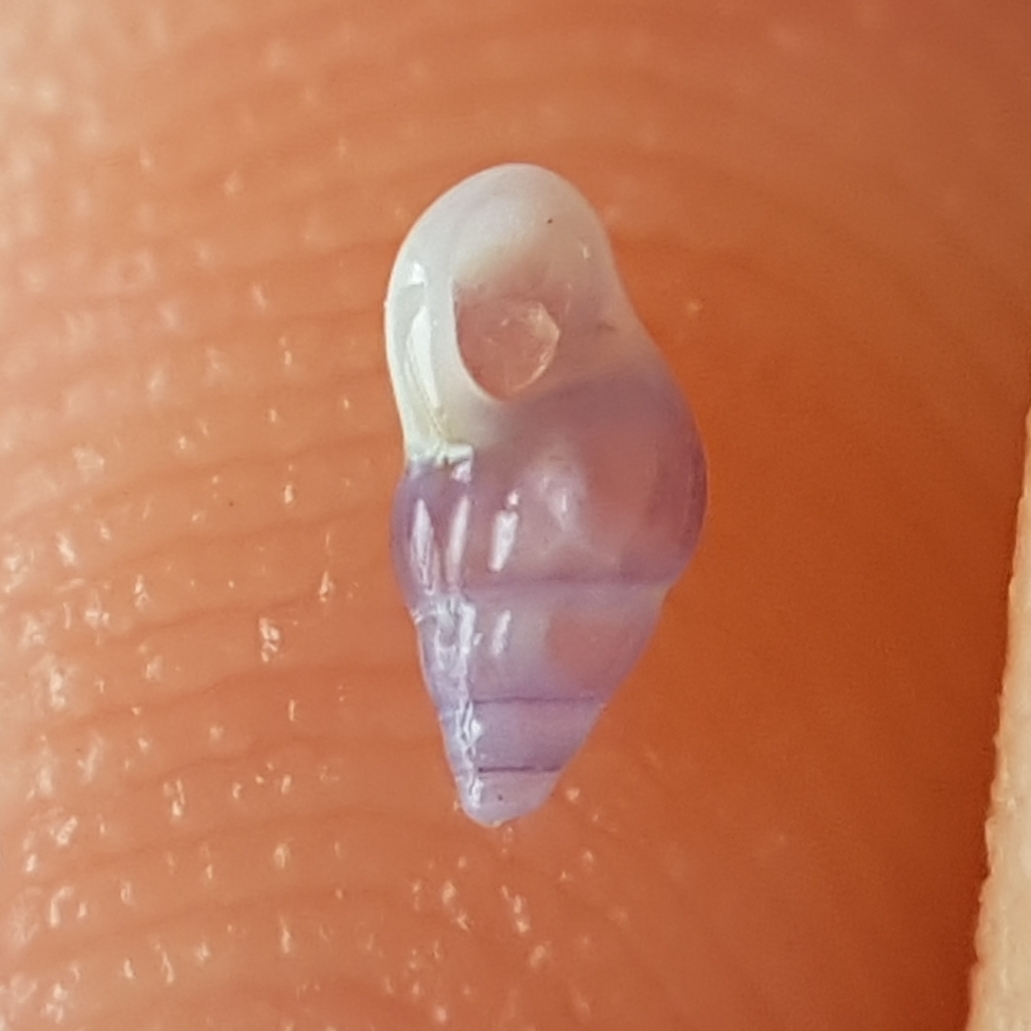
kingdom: Animalia
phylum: Mollusca
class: Gastropoda
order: Littorinimorpha
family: Rissoidae
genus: Rissoa
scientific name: Rissoa lilacina
